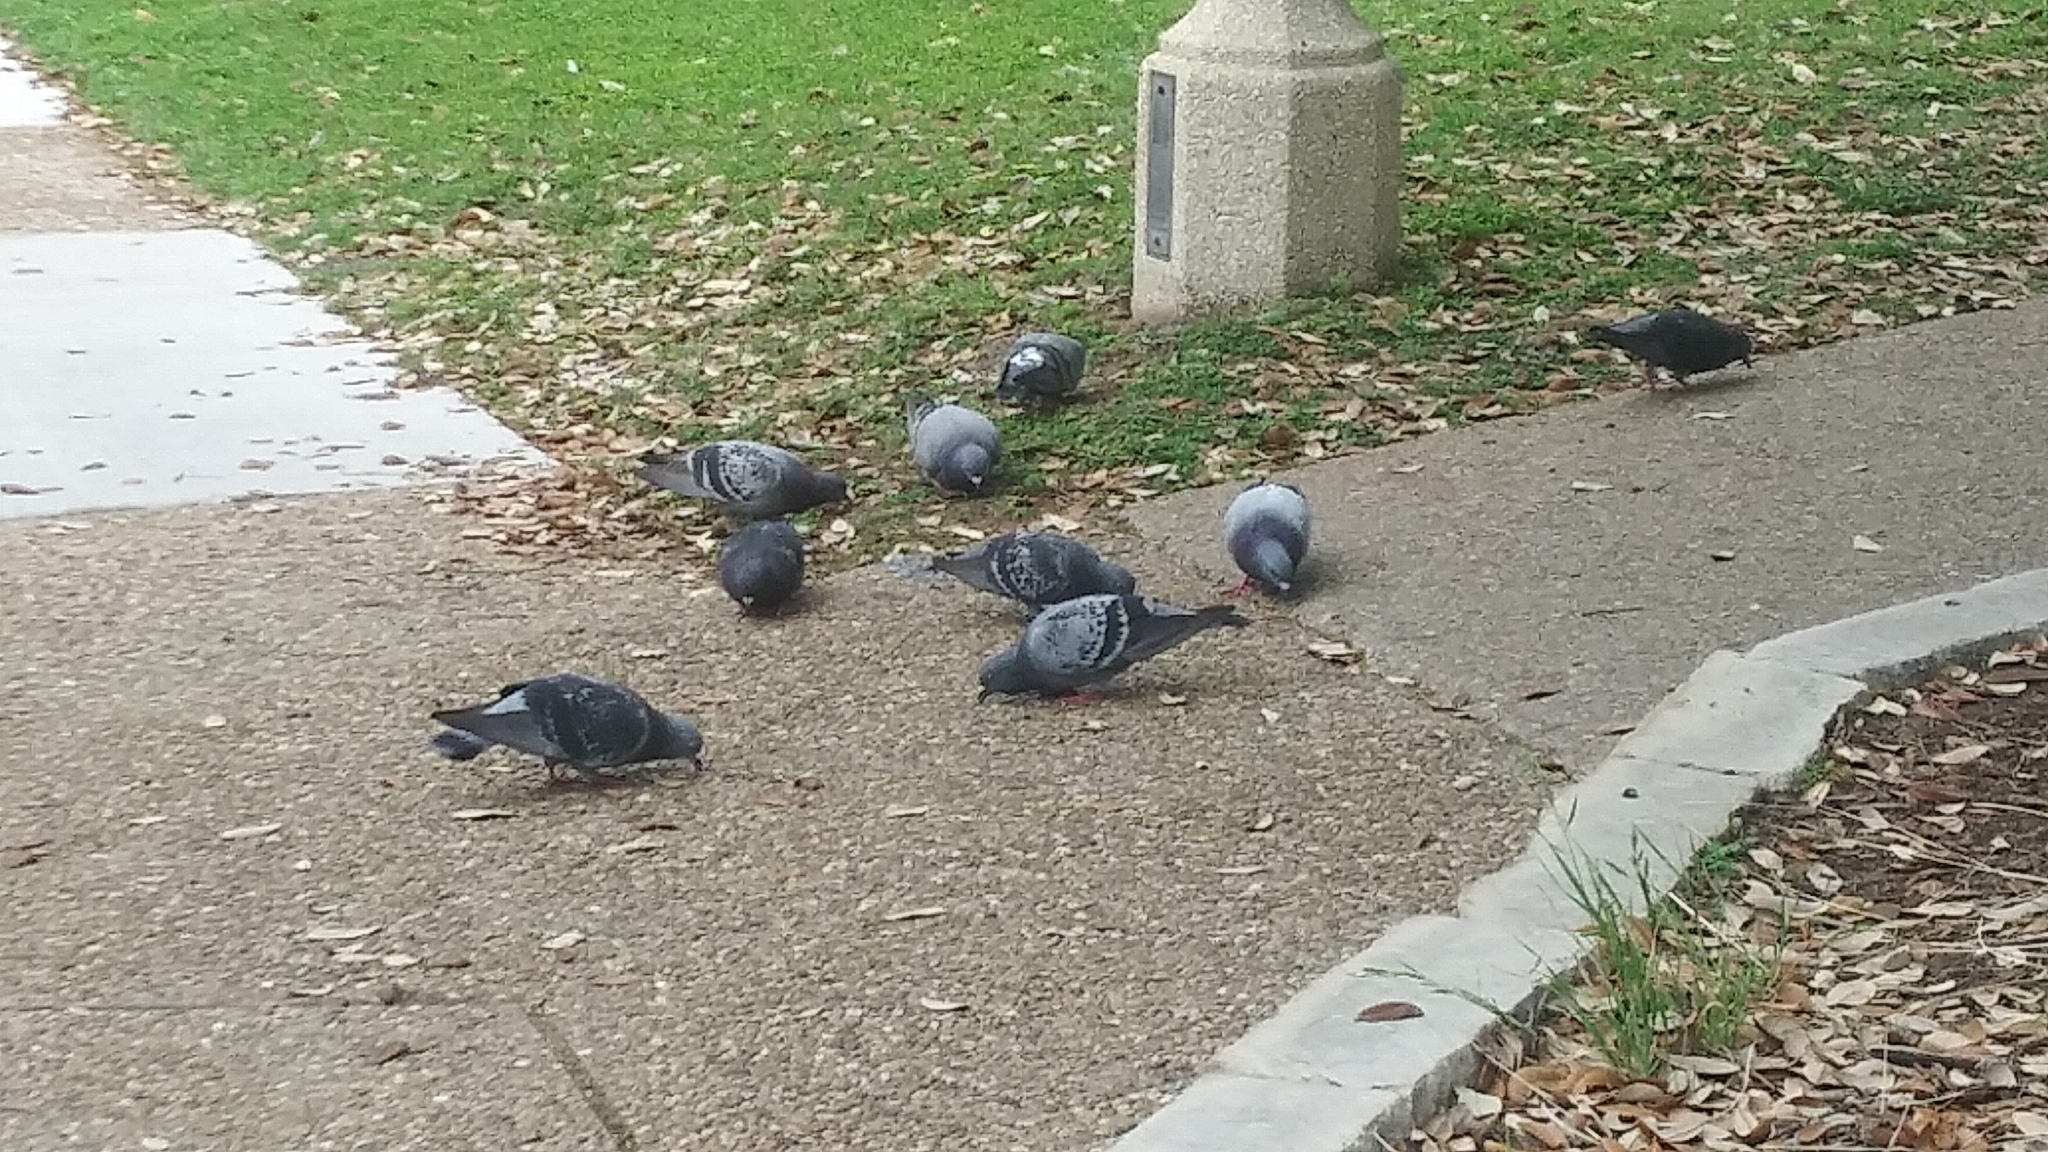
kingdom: Animalia
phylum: Chordata
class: Aves
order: Columbiformes
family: Columbidae
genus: Columba
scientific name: Columba livia
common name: Rock pigeon
